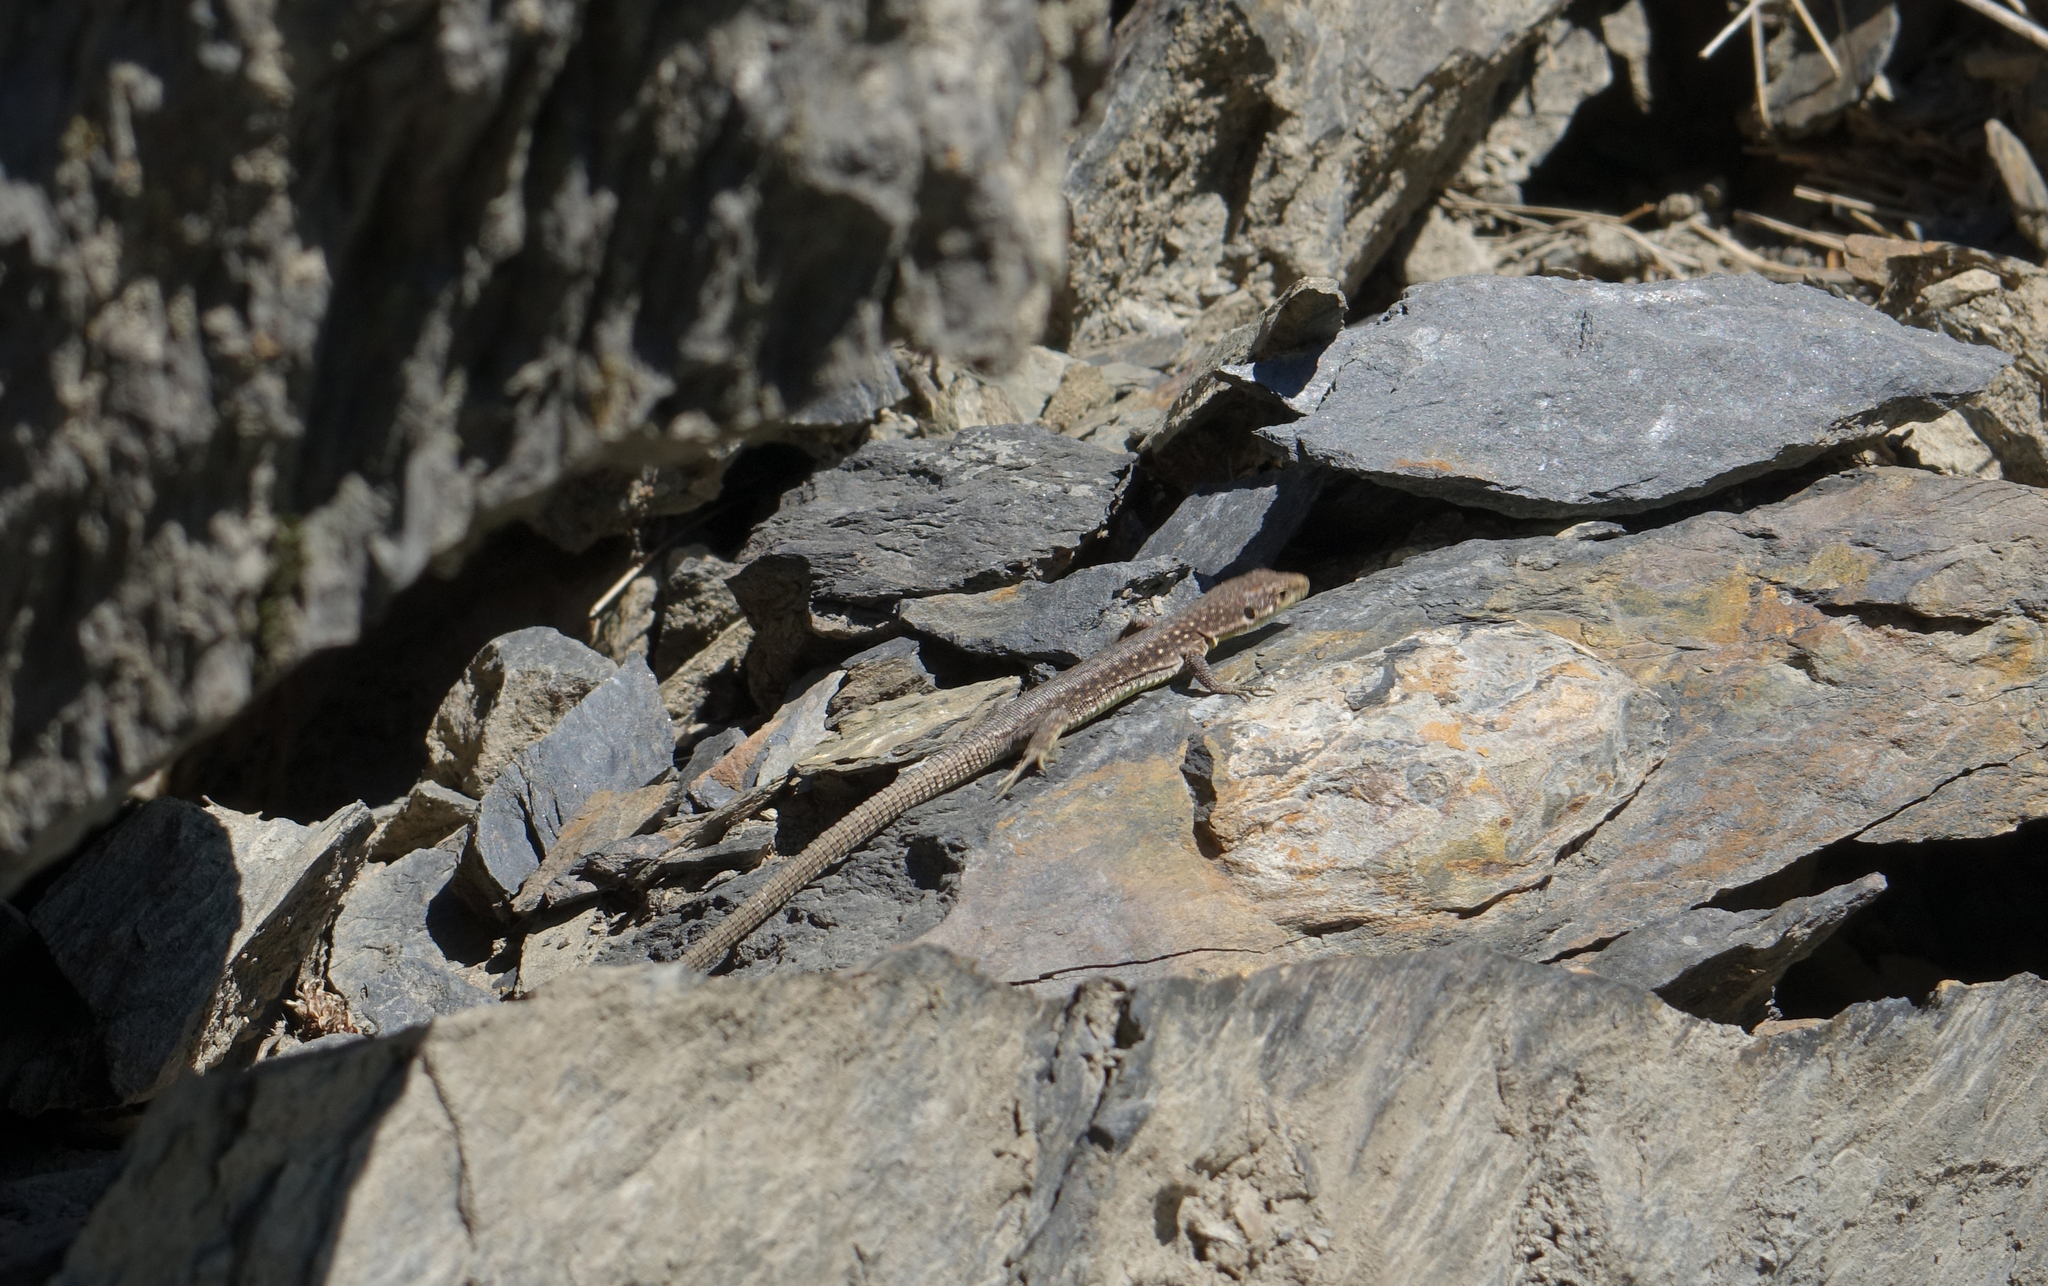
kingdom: Animalia
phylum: Chordata
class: Squamata
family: Lacertidae
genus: Darevskia
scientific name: Darevskia rudis
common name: Spiny-tailed lizard
